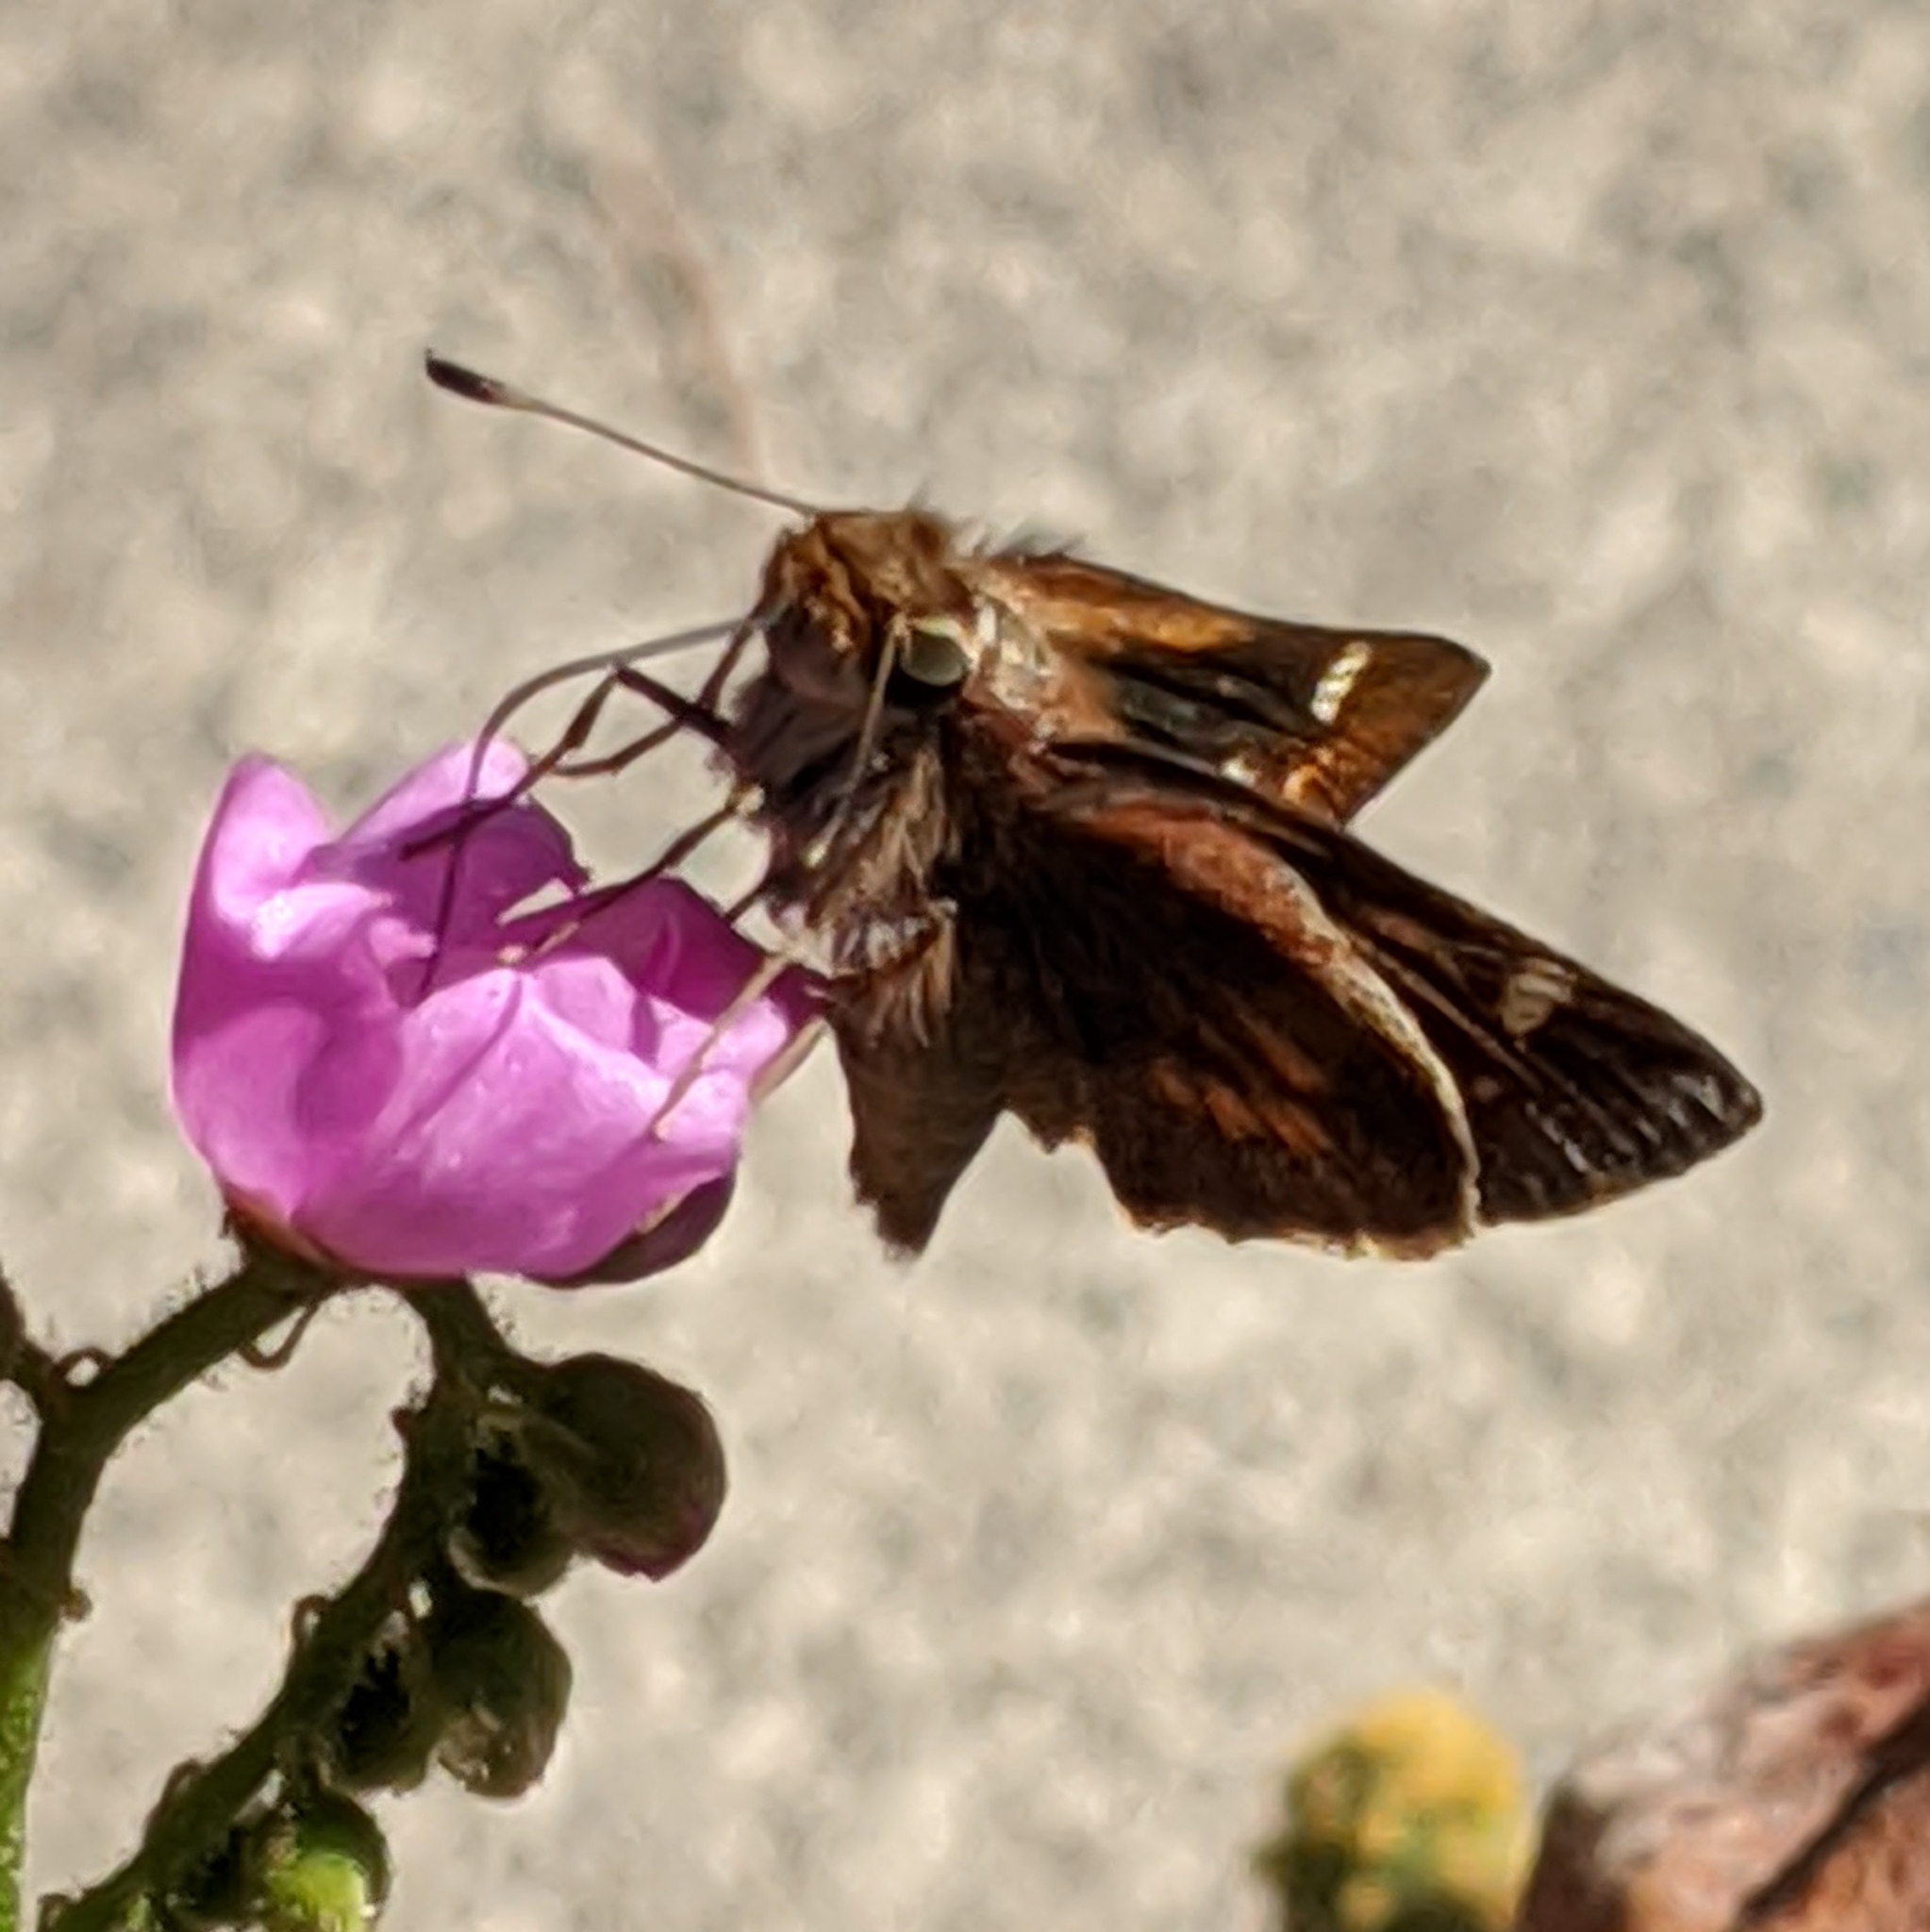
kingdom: Animalia
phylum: Arthropoda
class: Insecta
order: Lepidoptera
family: Hesperiidae
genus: Lon
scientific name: Lon melane
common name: Umber skipper
